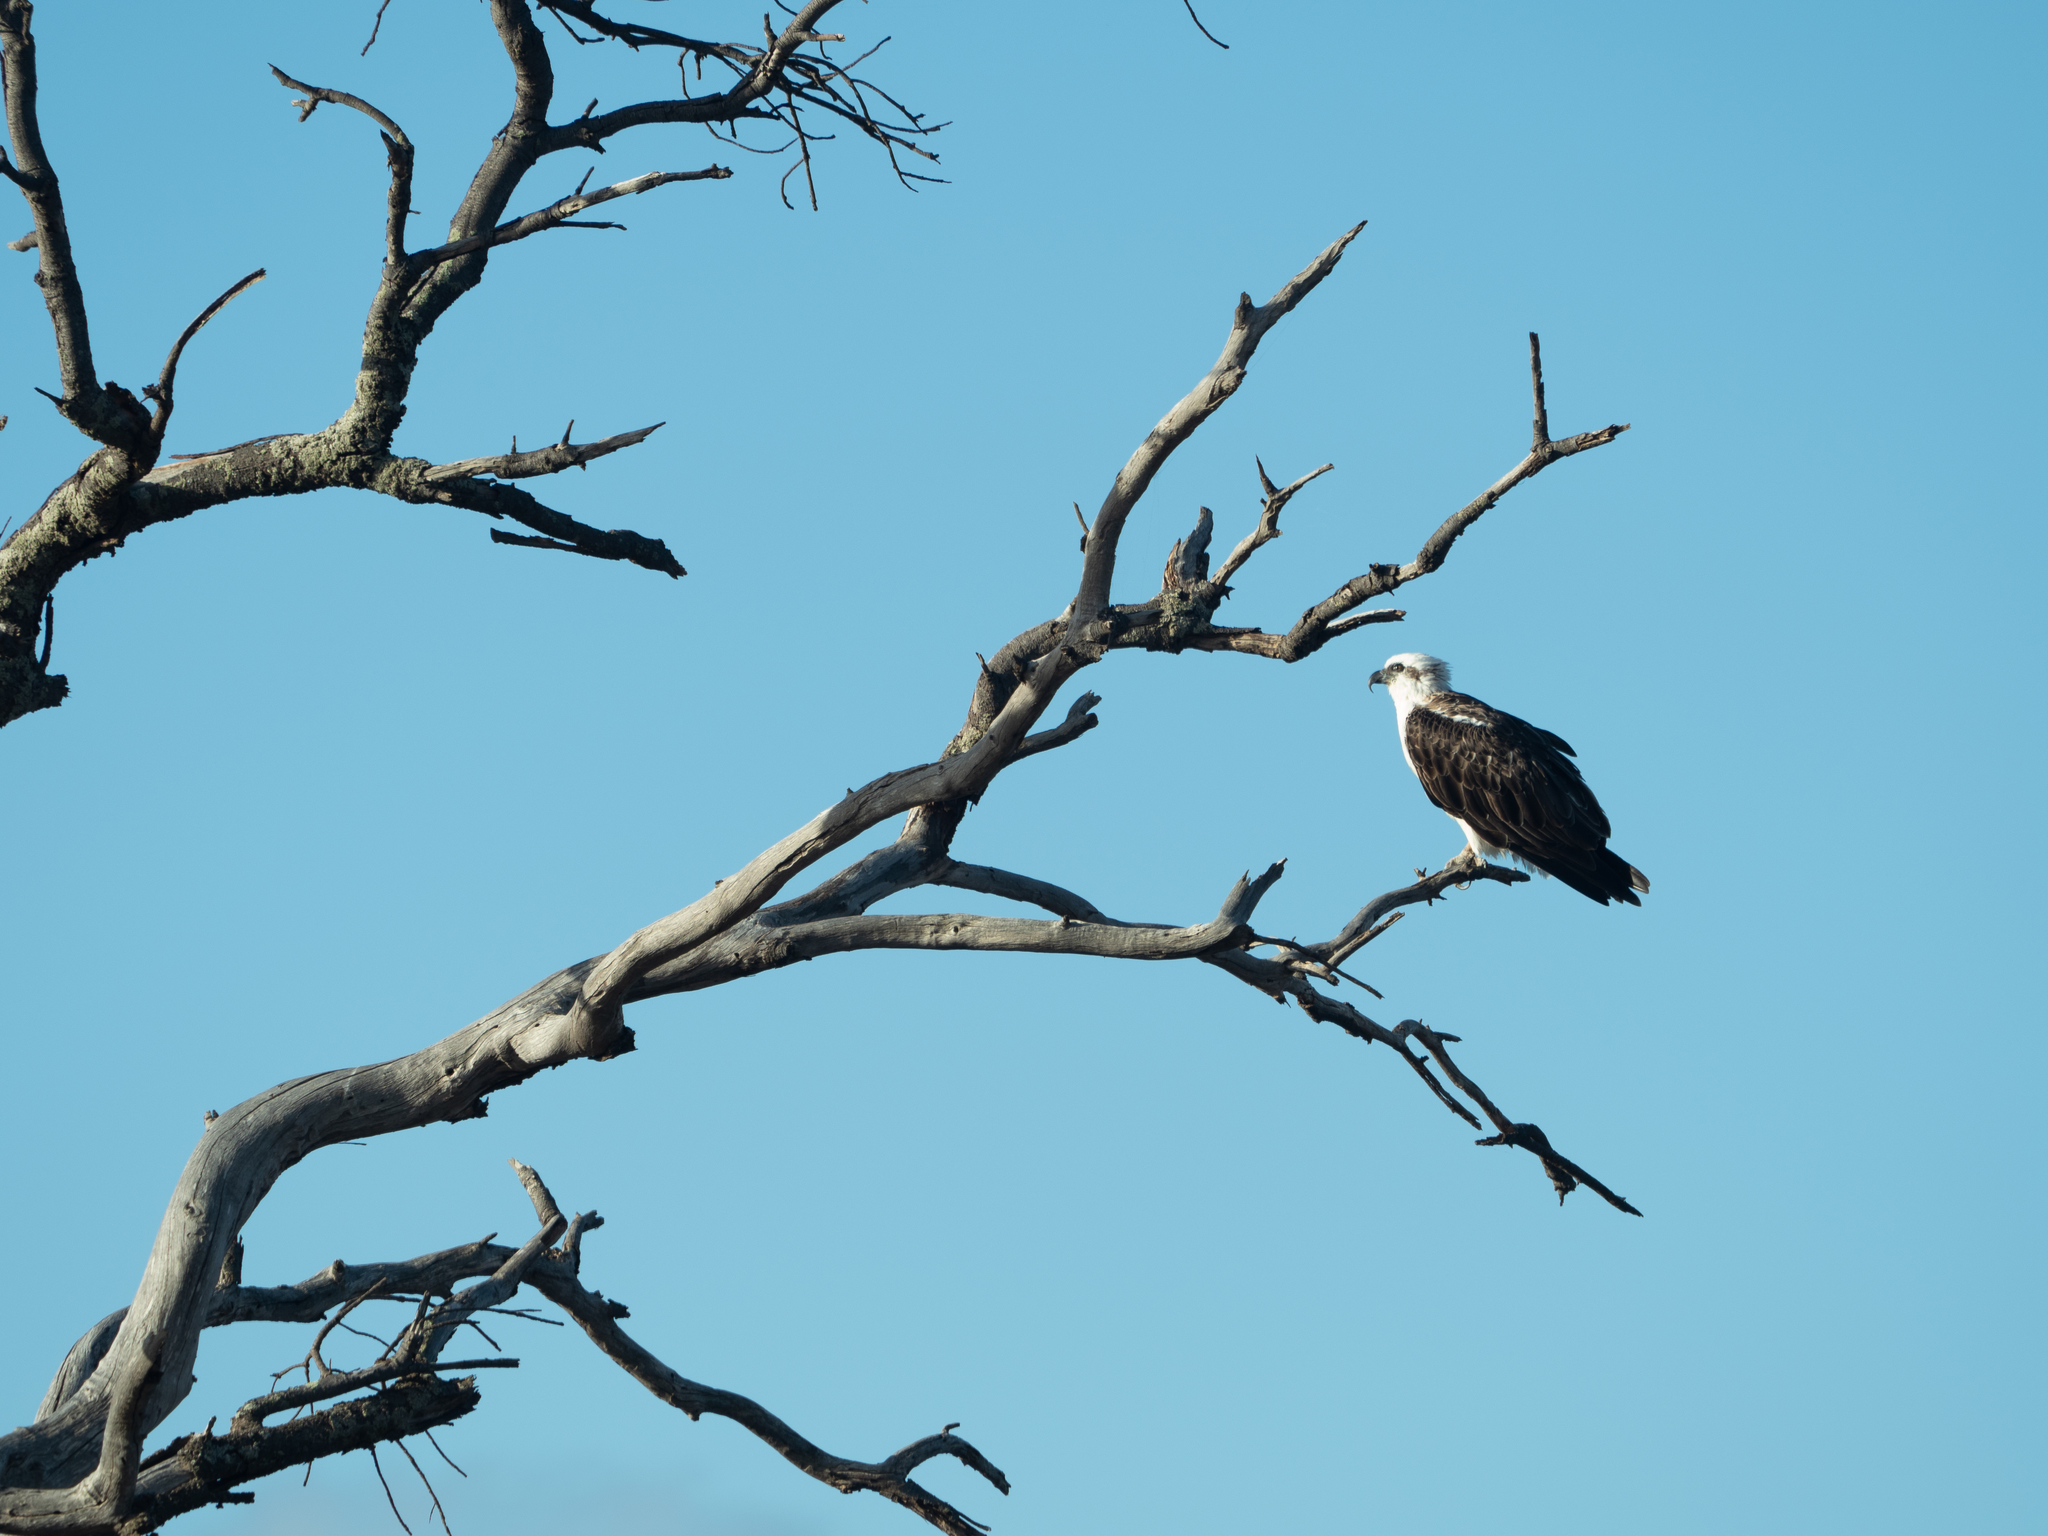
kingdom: Animalia
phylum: Chordata
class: Aves
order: Accipitriformes
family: Pandionidae
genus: Pandion
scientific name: Pandion cristatus
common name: Eastern osprey
